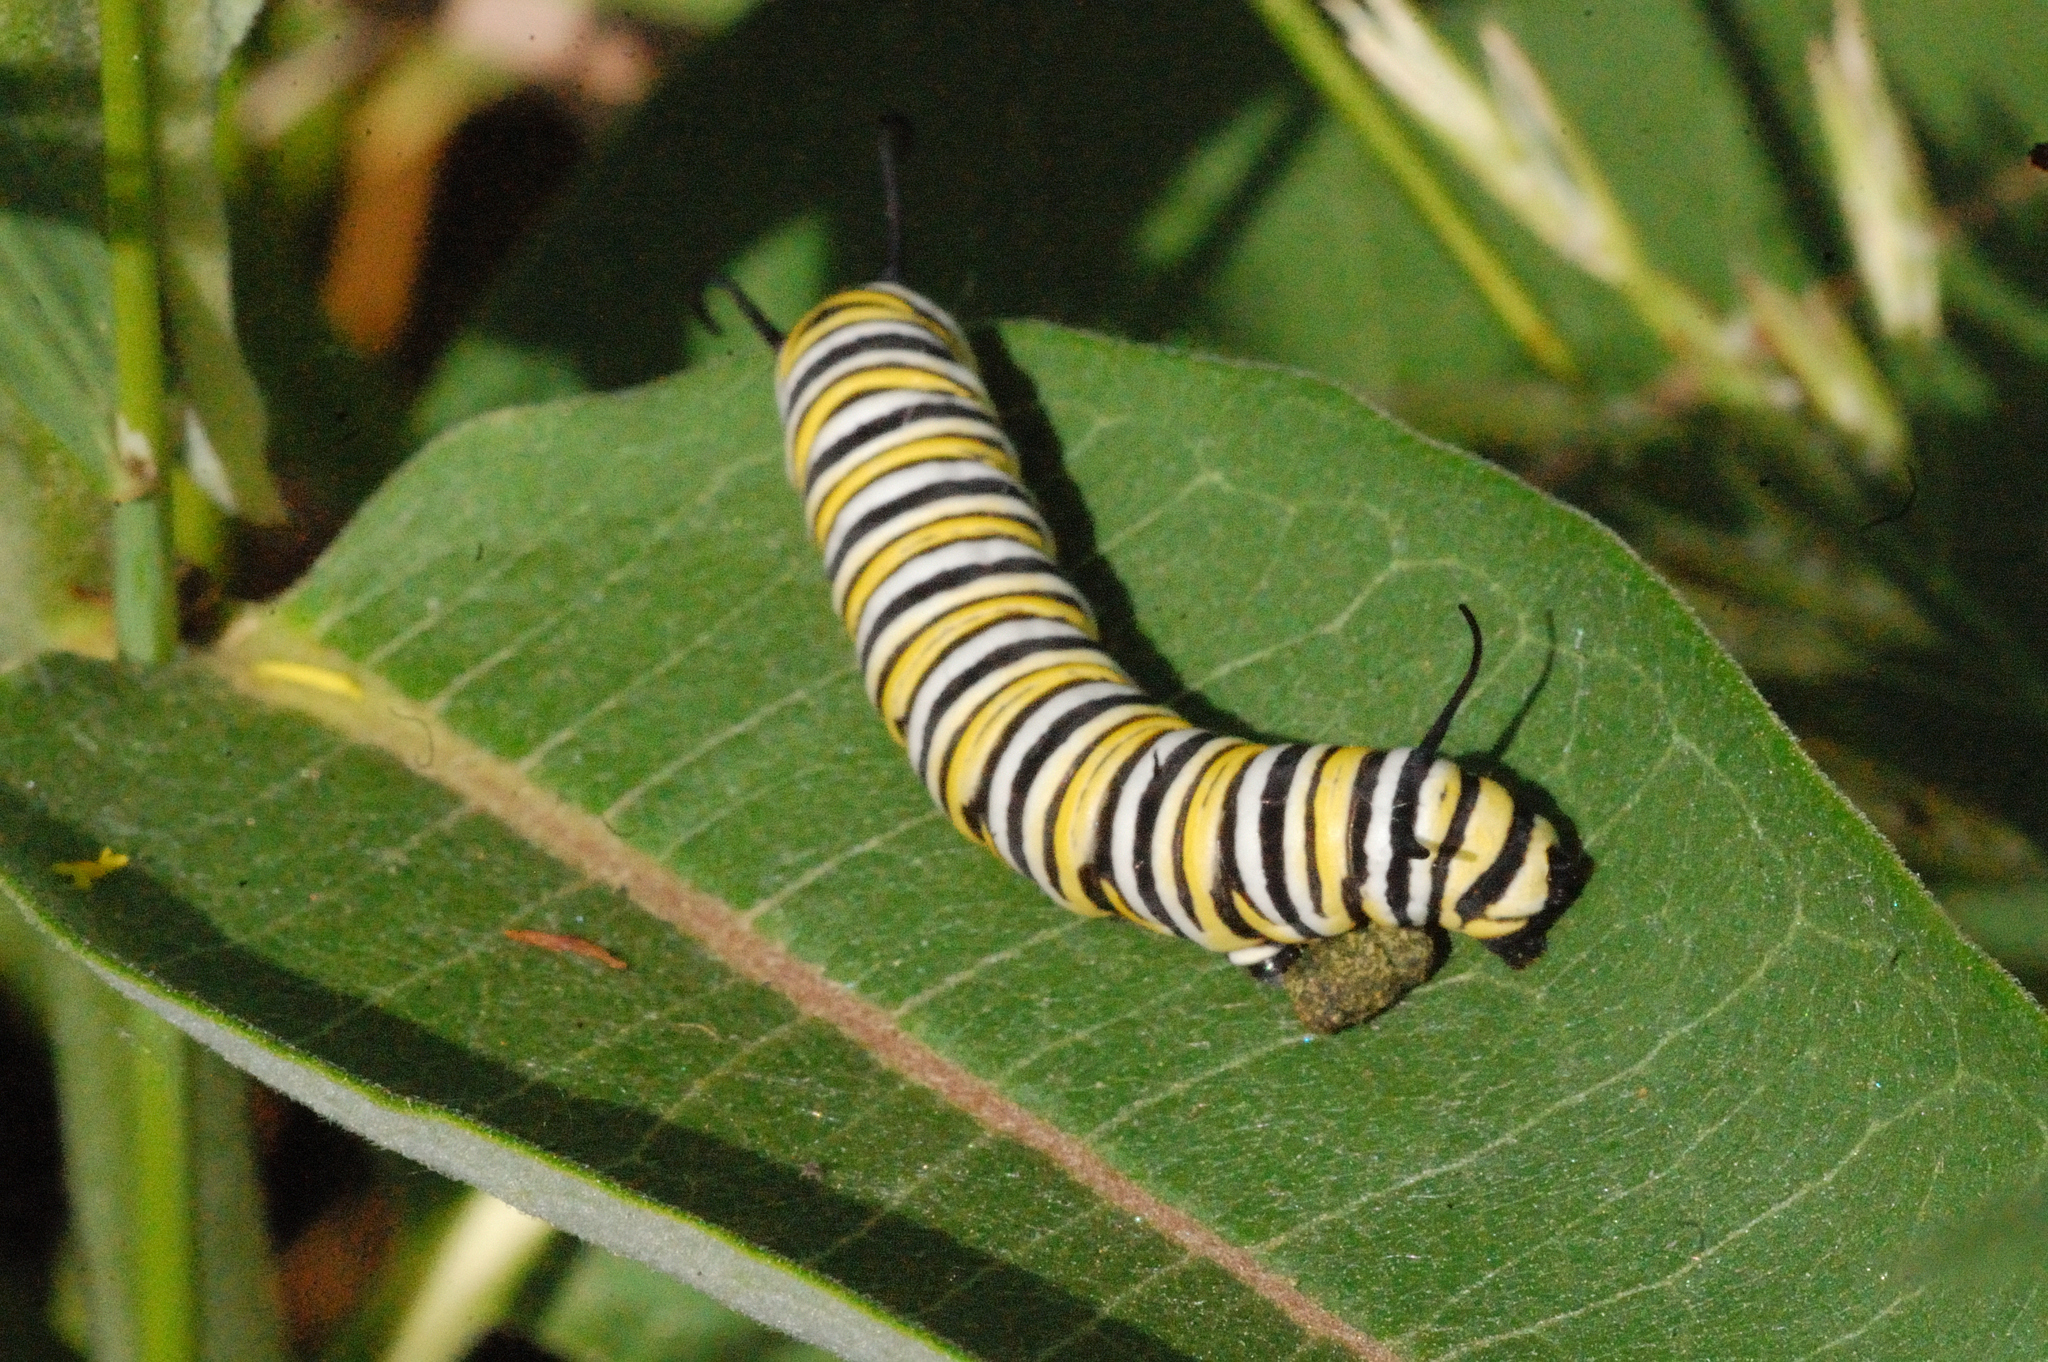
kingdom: Animalia
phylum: Arthropoda
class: Insecta
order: Lepidoptera
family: Nymphalidae
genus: Danaus
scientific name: Danaus plexippus
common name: Monarch
